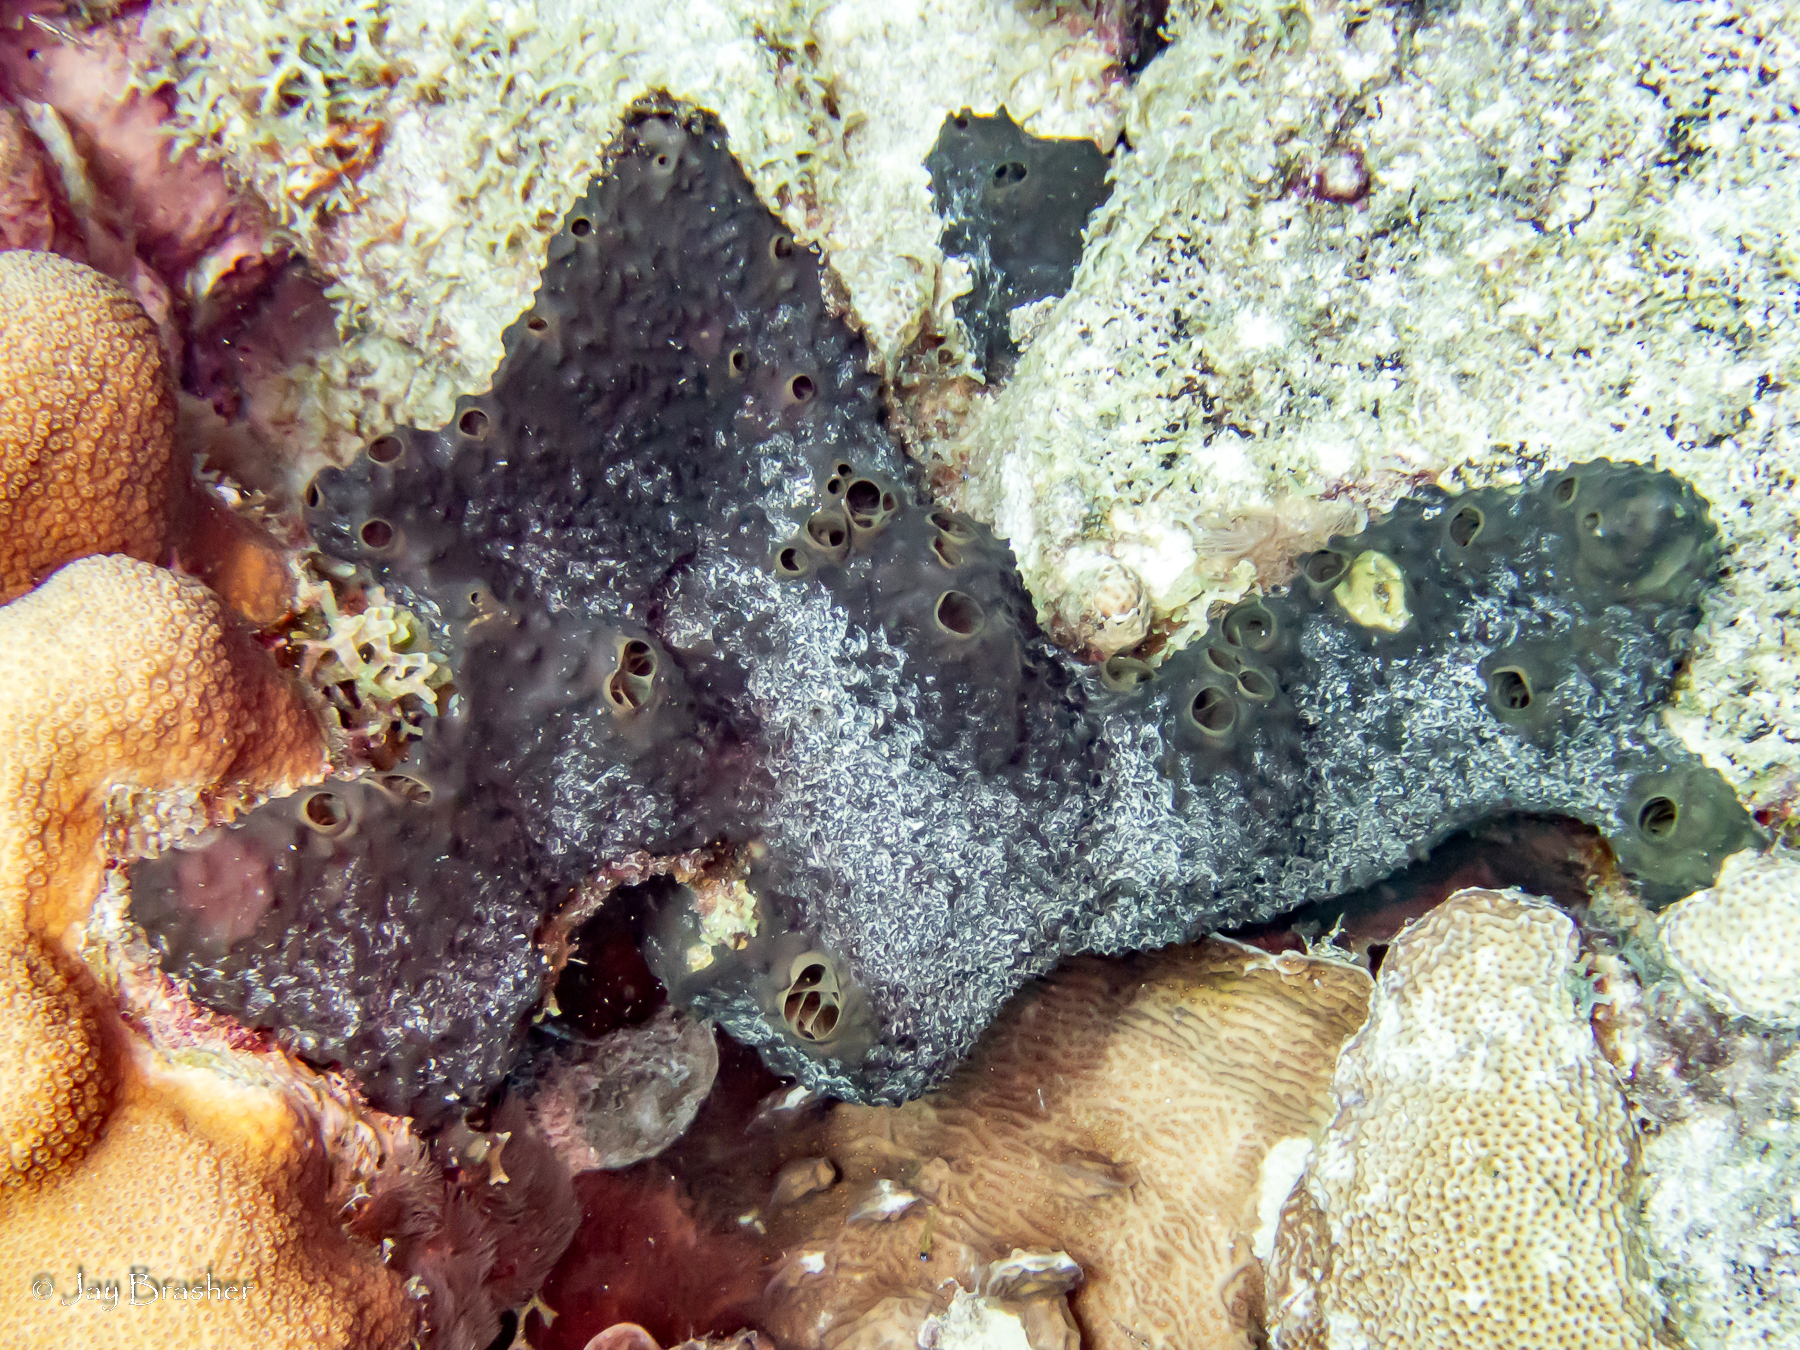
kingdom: Animalia
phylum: Porifera
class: Demospongiae
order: Dictyoceratida
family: Thorectidae
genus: Smenospongia
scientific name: Smenospongia conulosa
